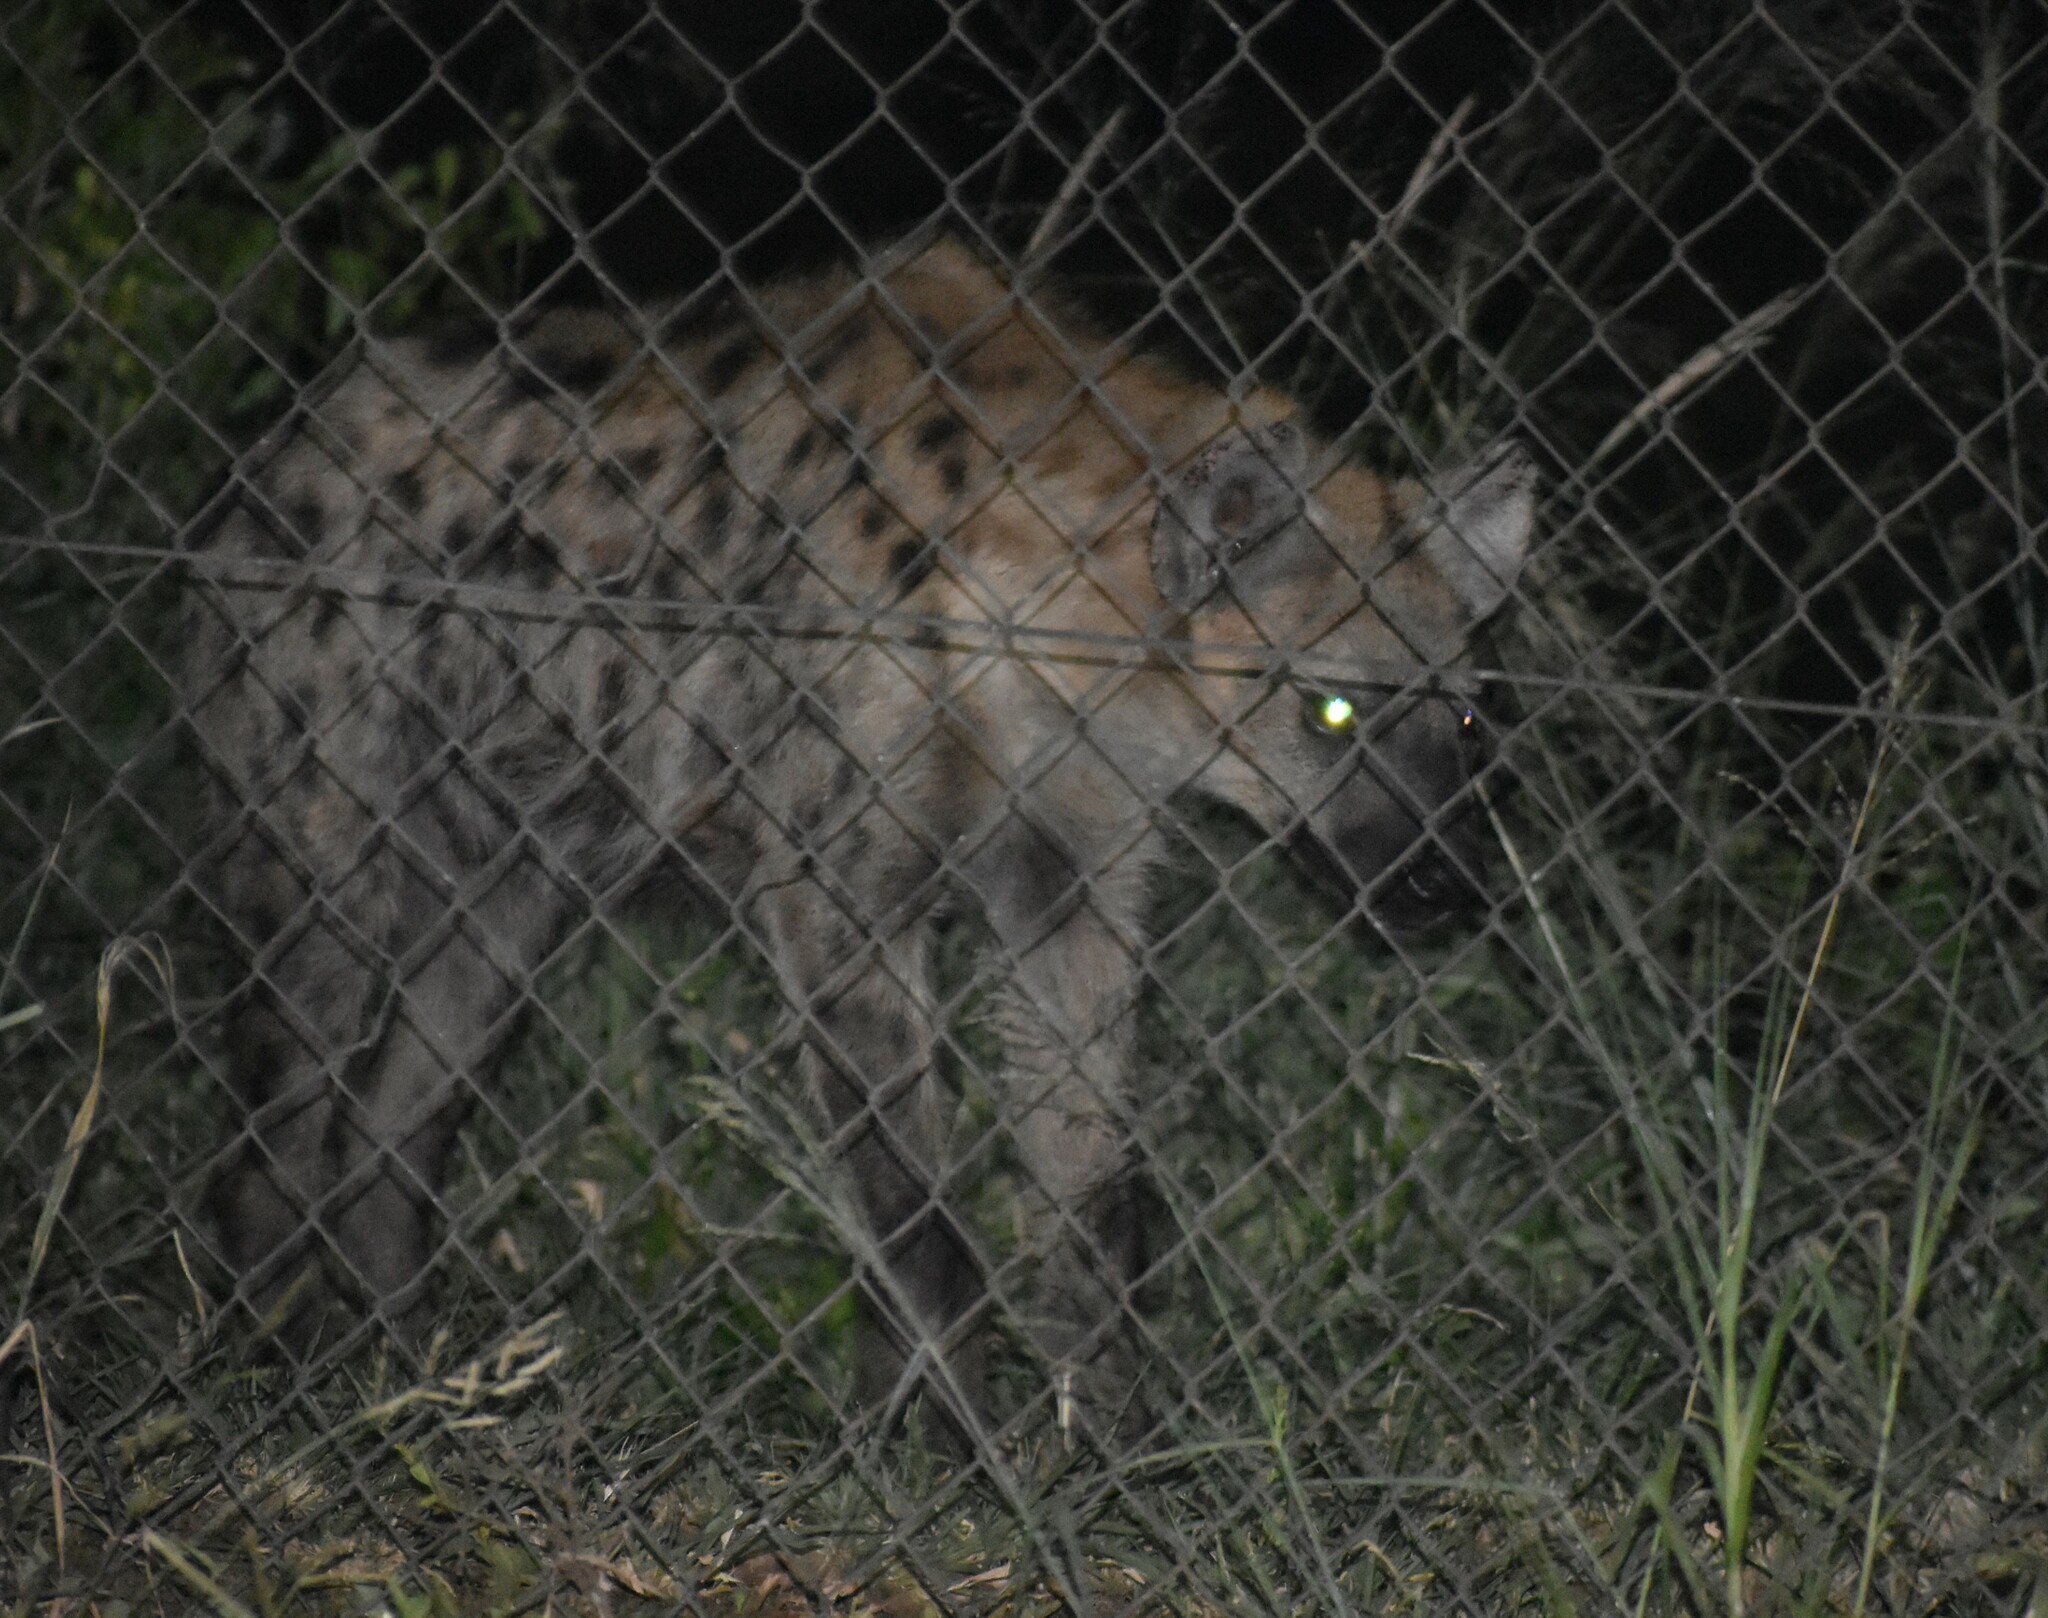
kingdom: Animalia
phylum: Chordata
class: Mammalia
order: Carnivora
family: Hyaenidae
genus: Crocuta
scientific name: Crocuta crocuta
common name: Spotted hyaena
